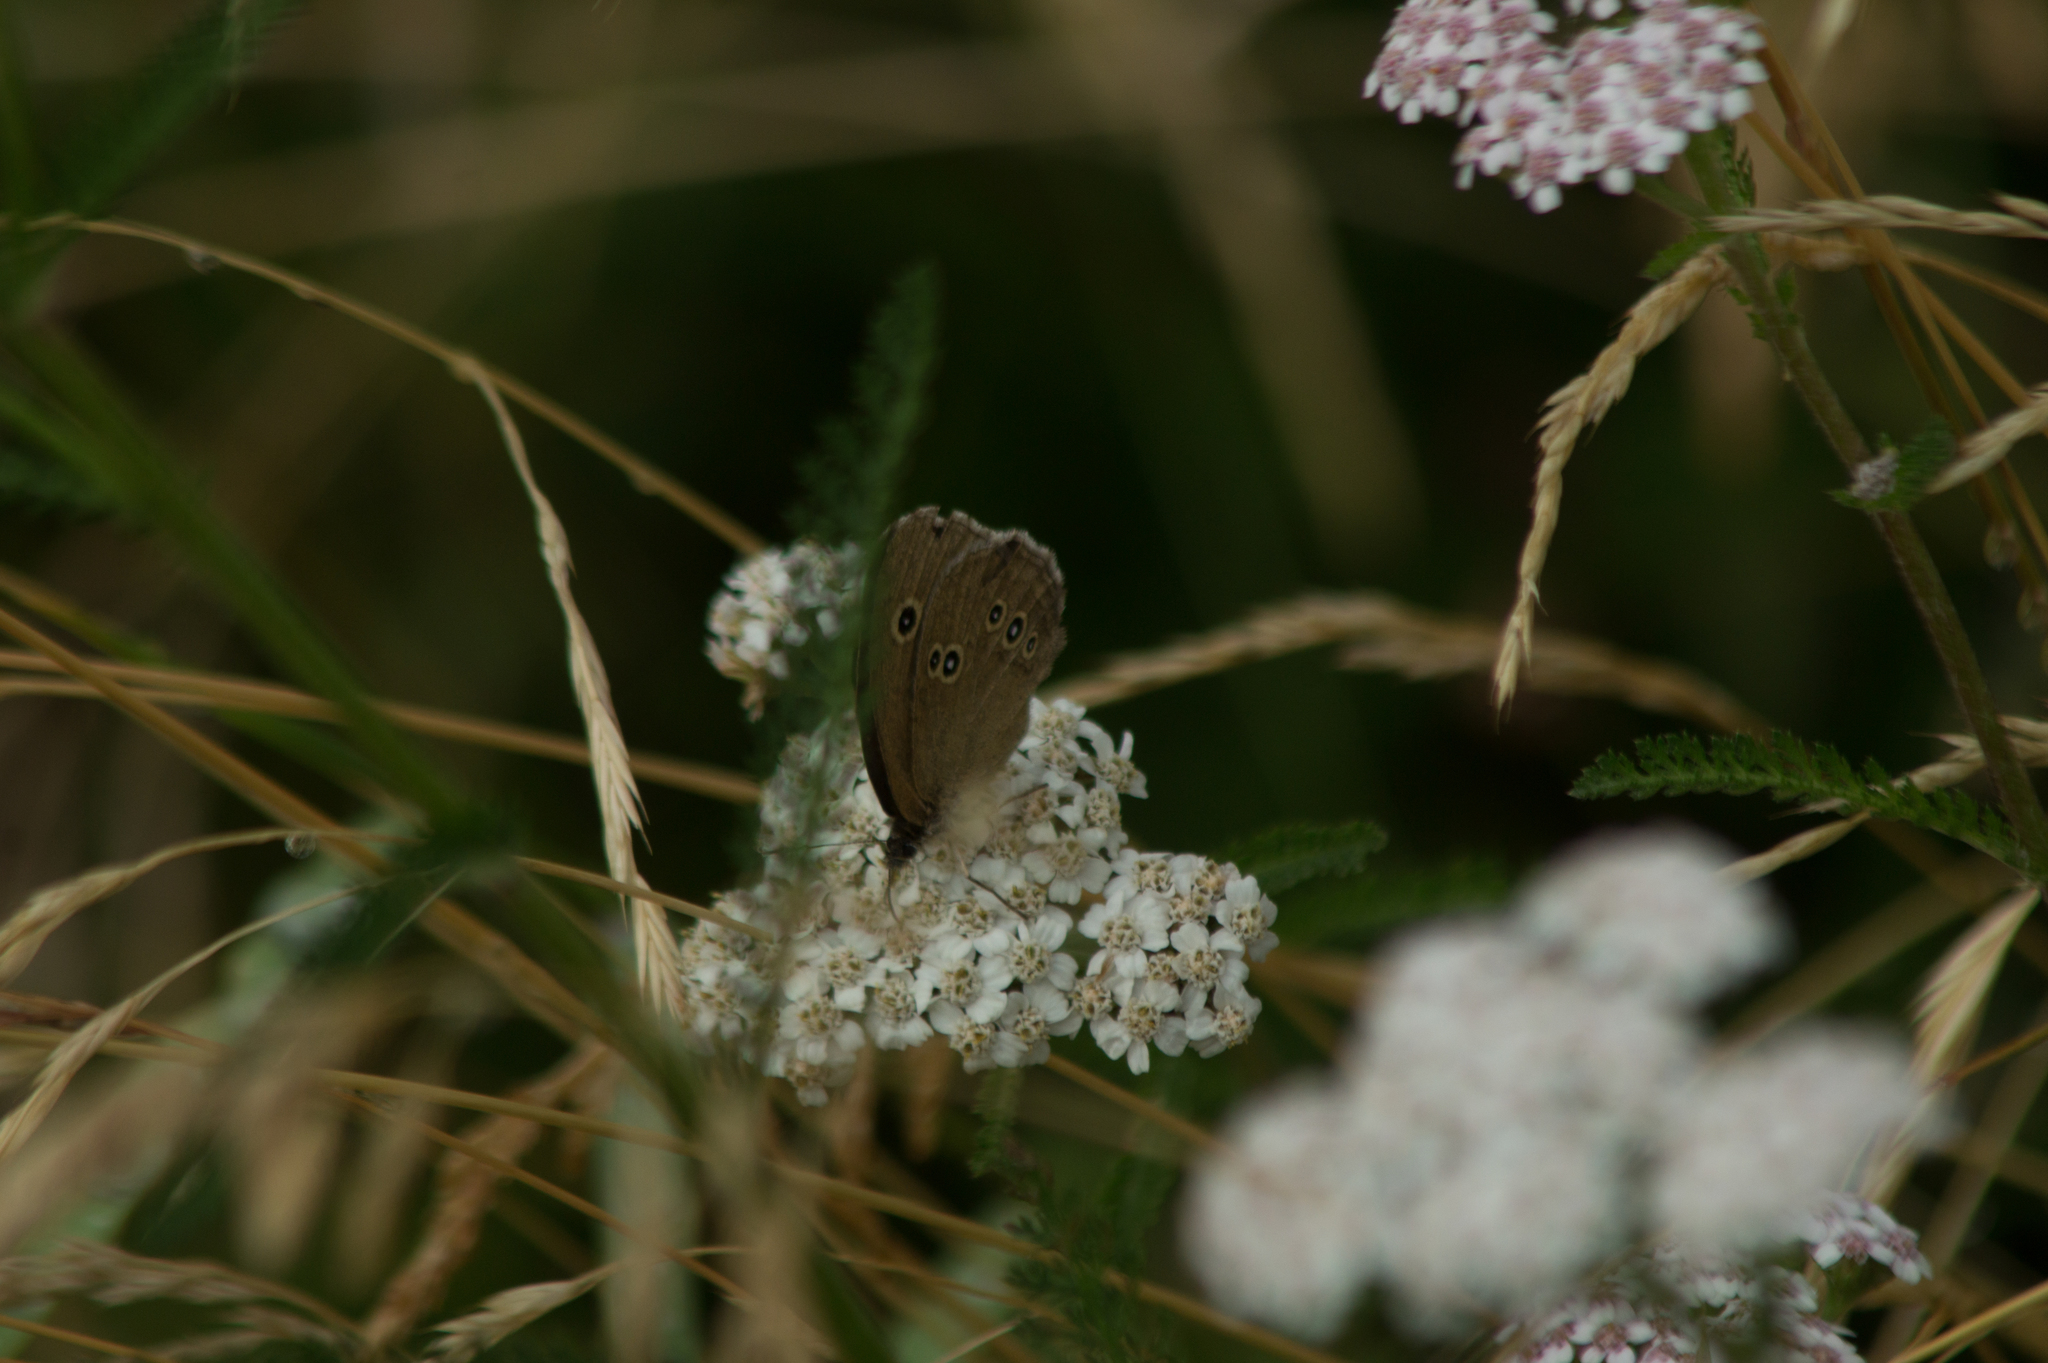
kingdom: Animalia
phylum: Arthropoda
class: Insecta
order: Lepidoptera
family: Nymphalidae
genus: Aphantopus
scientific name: Aphantopus hyperantus
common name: Ringlet
